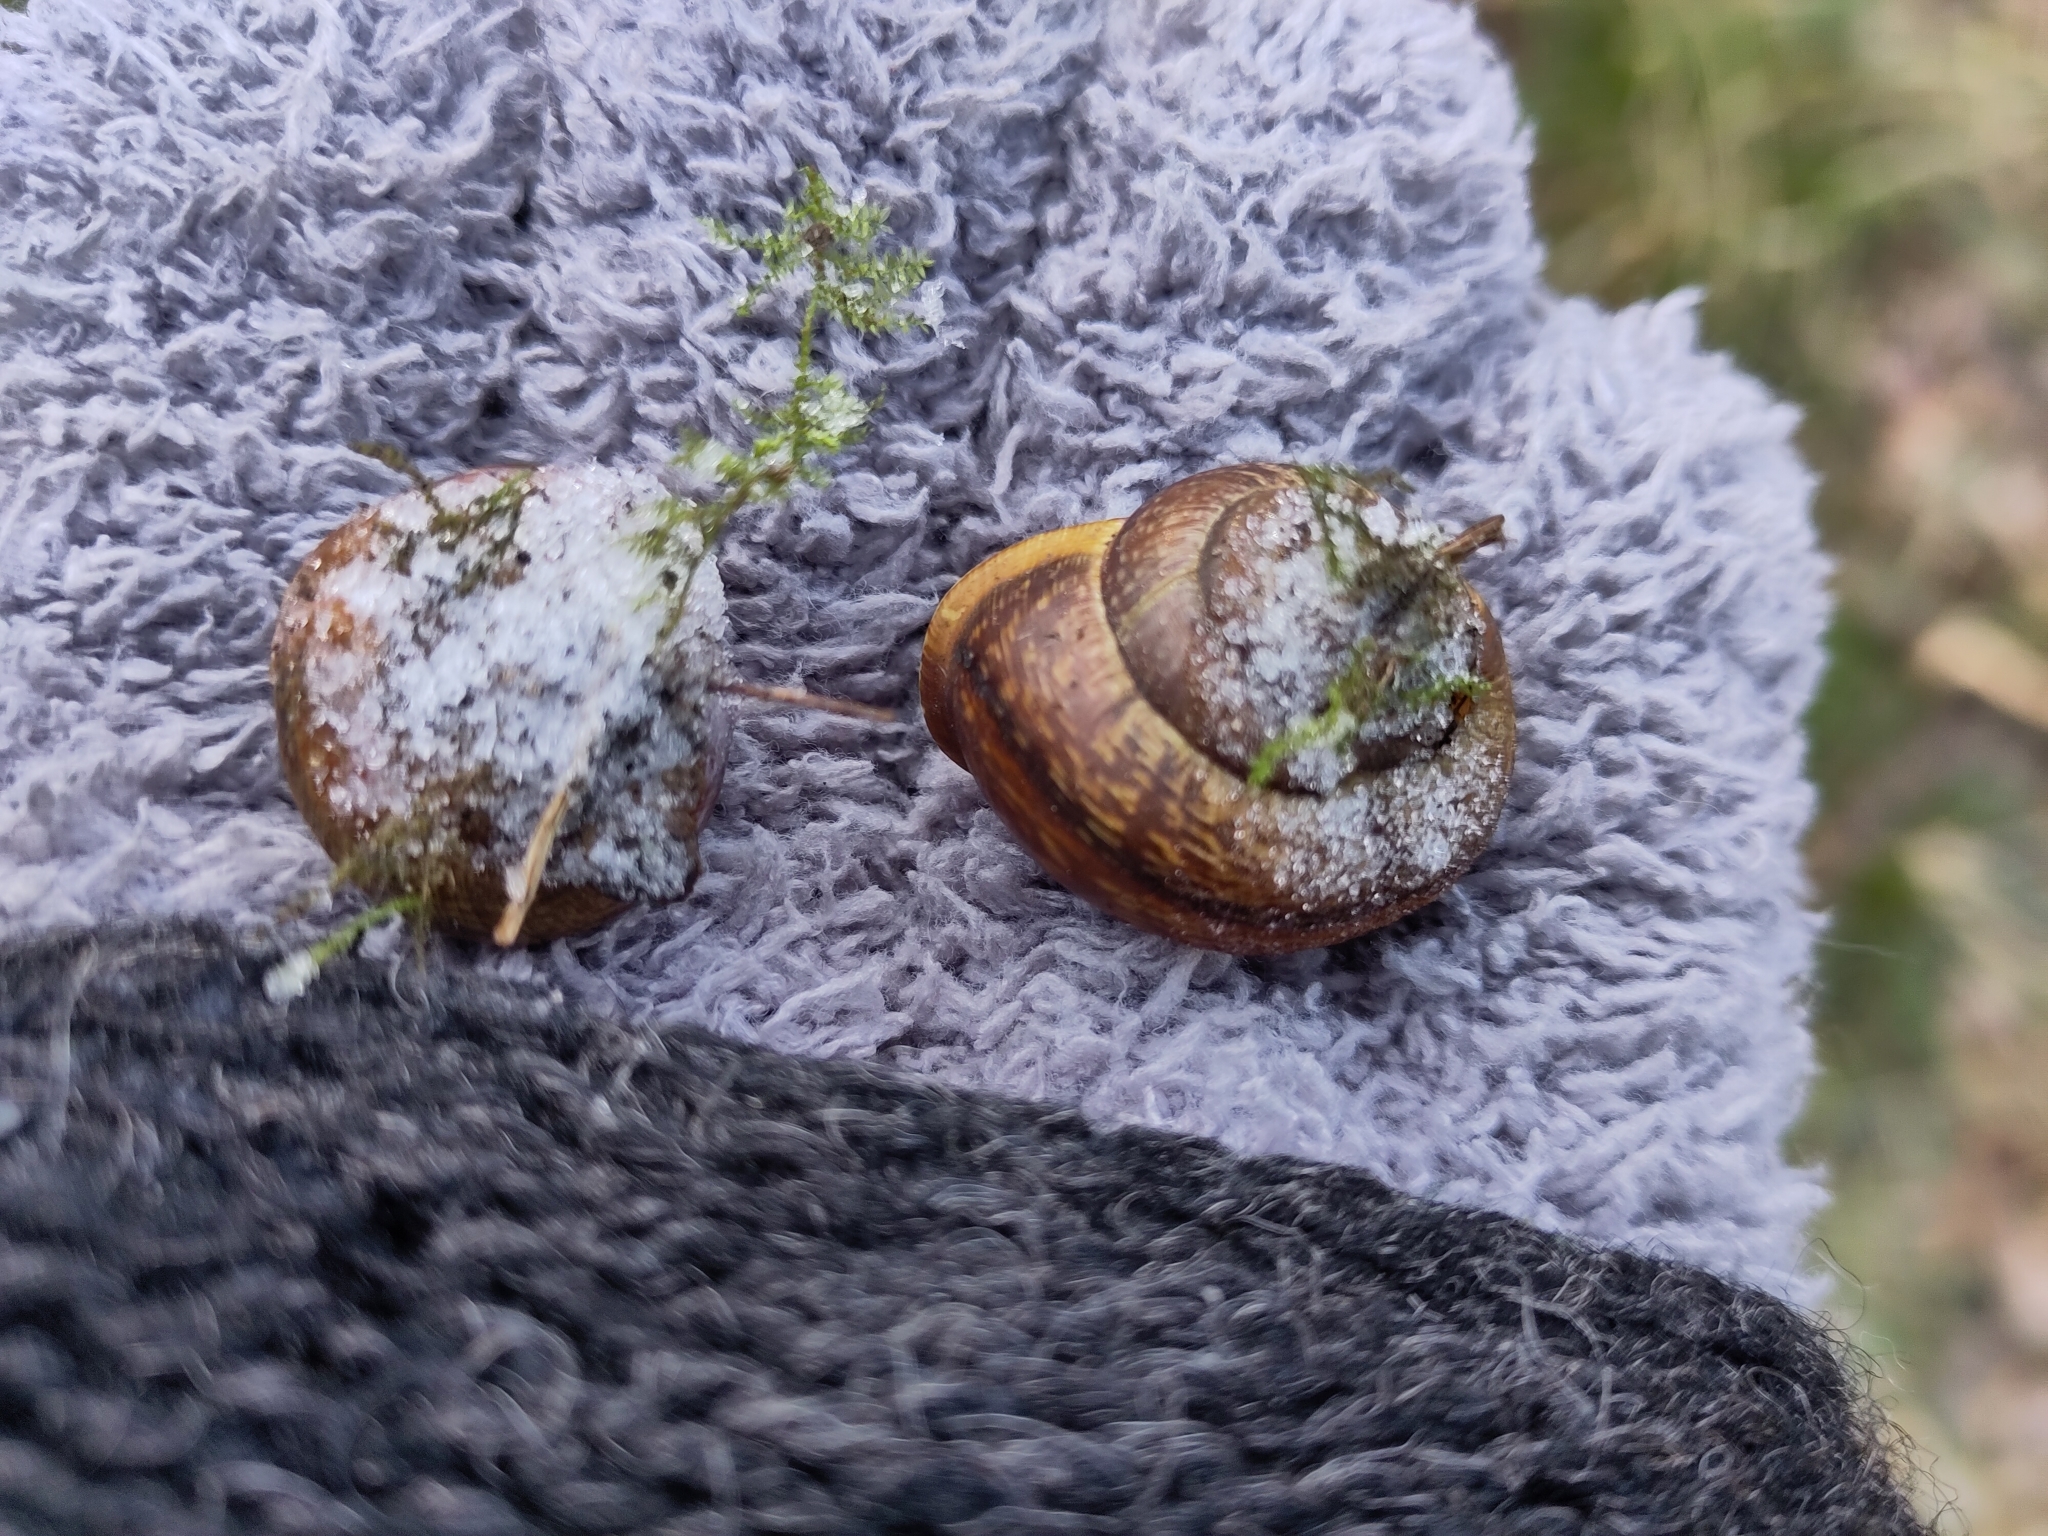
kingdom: Animalia
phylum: Mollusca
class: Gastropoda
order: Stylommatophora
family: Helicidae
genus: Arianta
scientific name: Arianta arbustorum
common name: Copse snail
